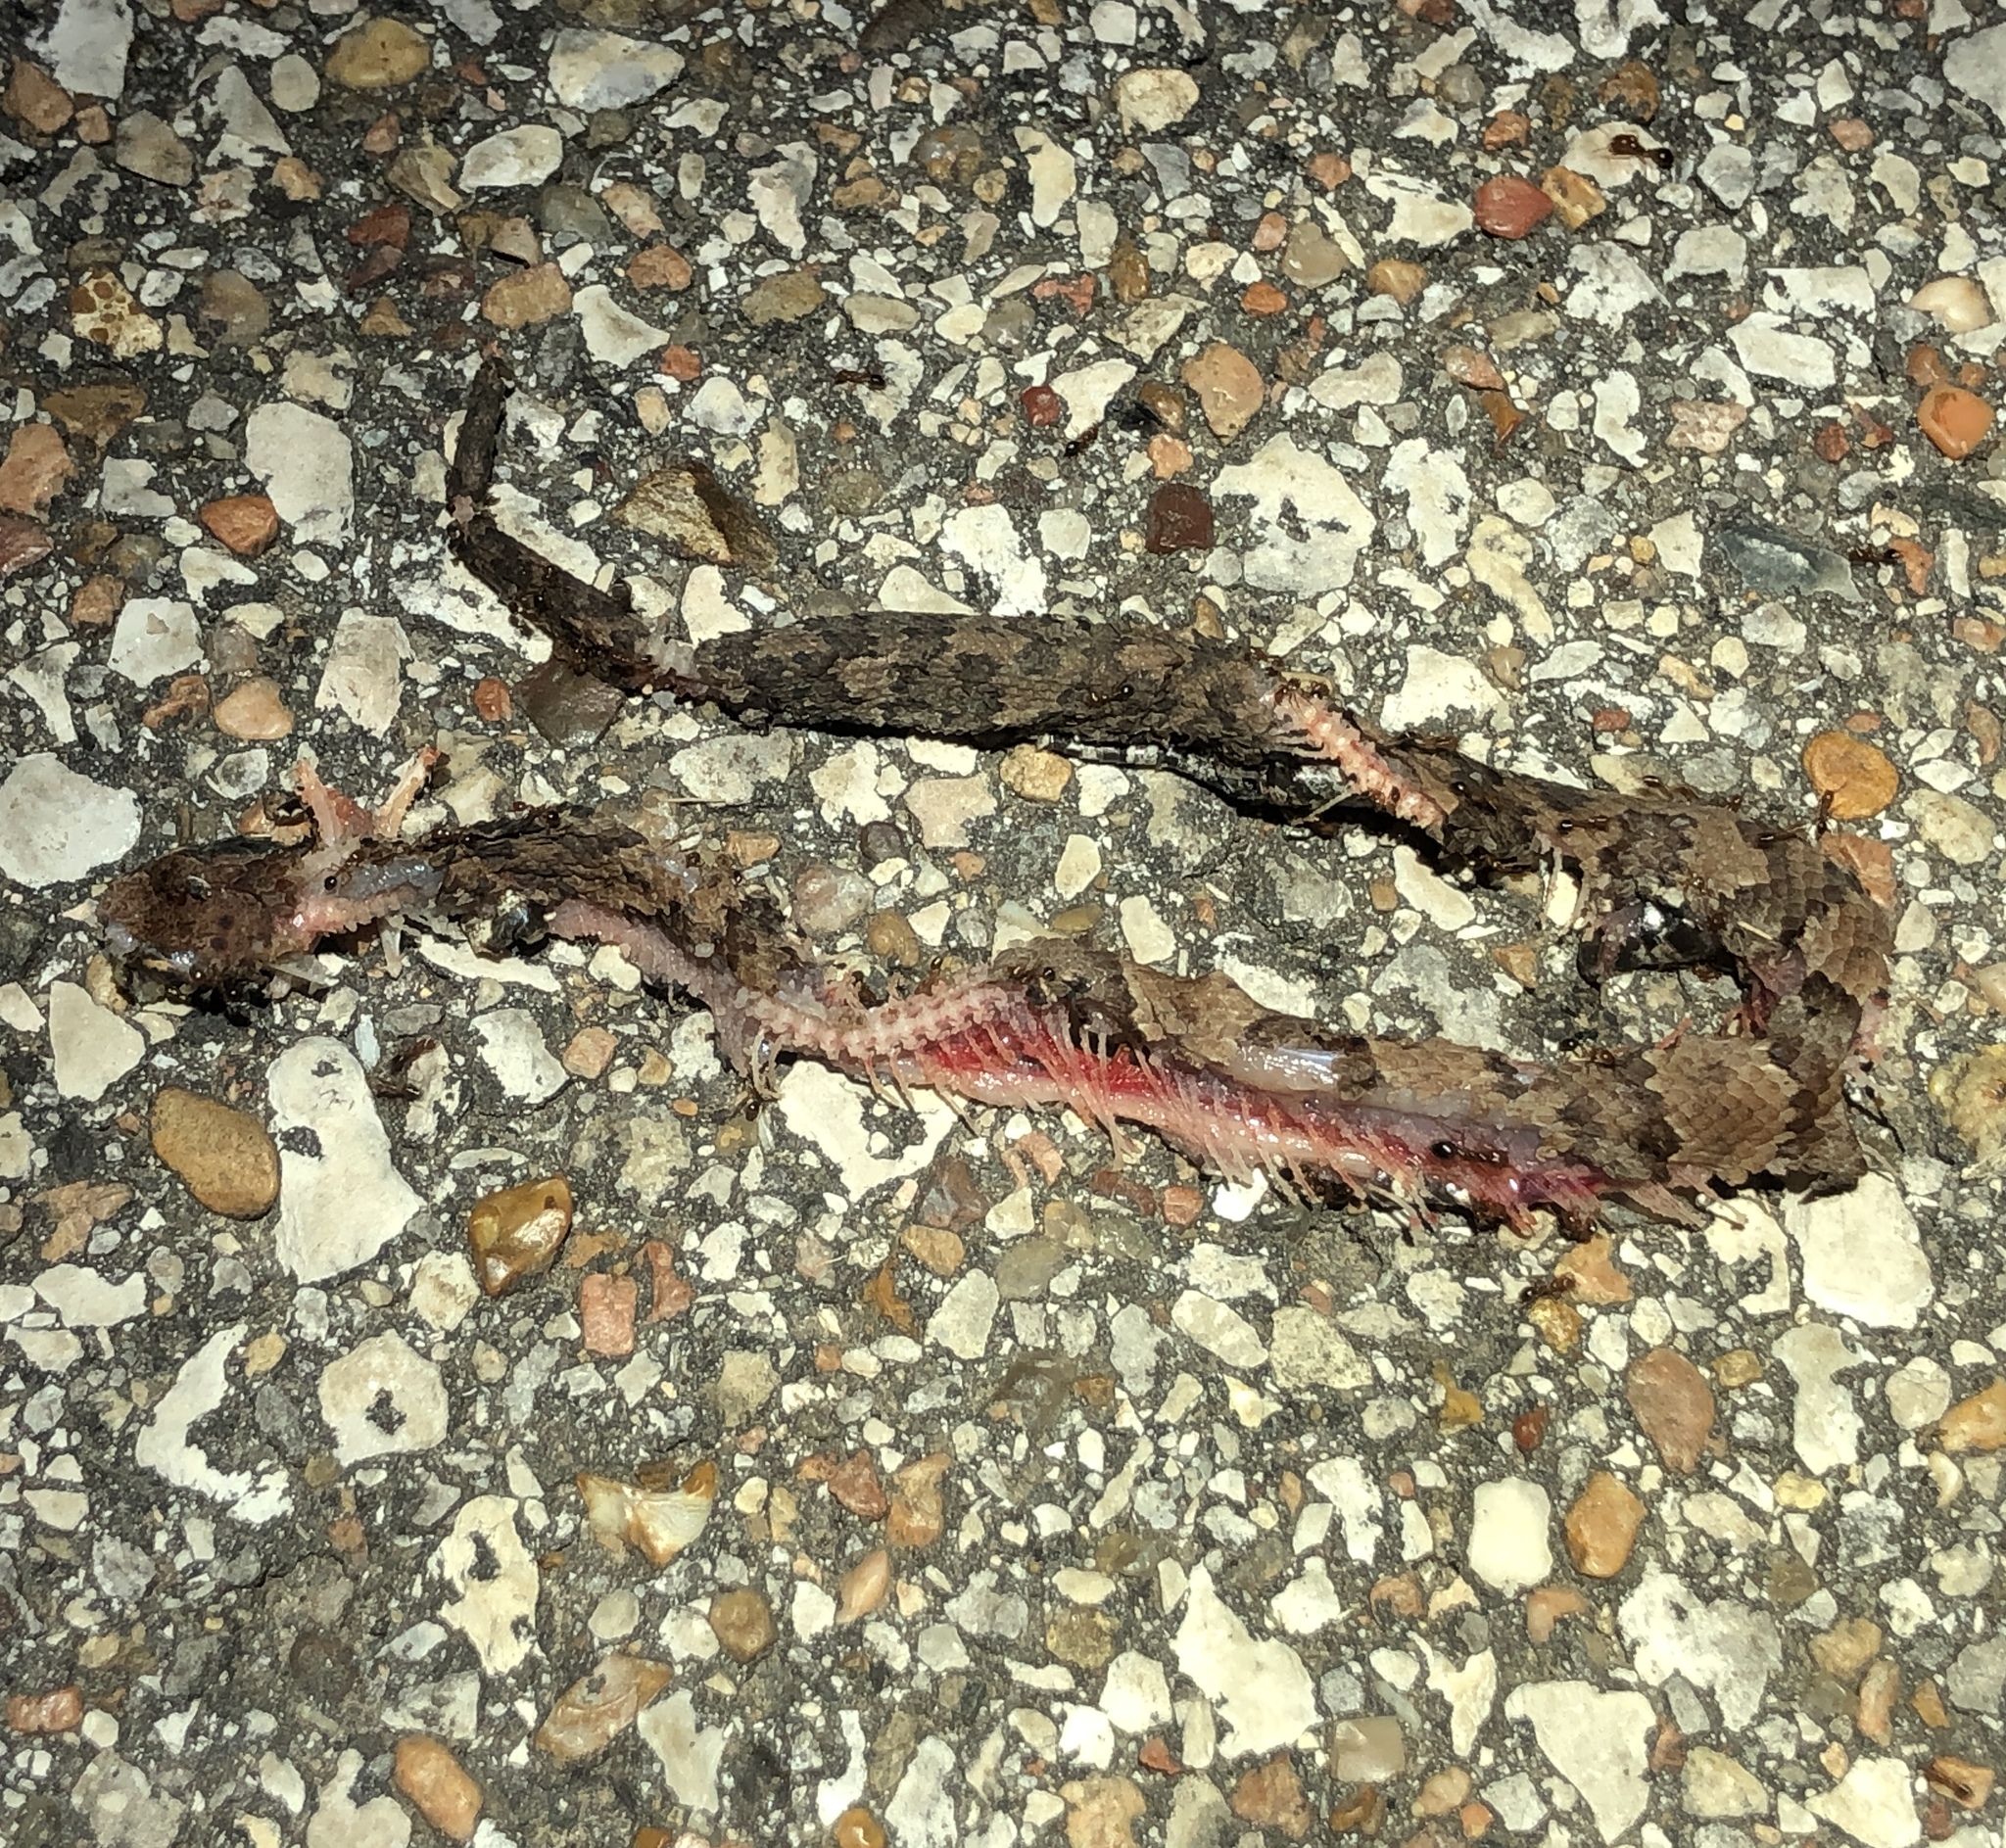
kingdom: Animalia
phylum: Chordata
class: Squamata
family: Viperidae
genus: Agkistrodon
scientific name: Agkistrodon piscivorus
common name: Cottonmouth
